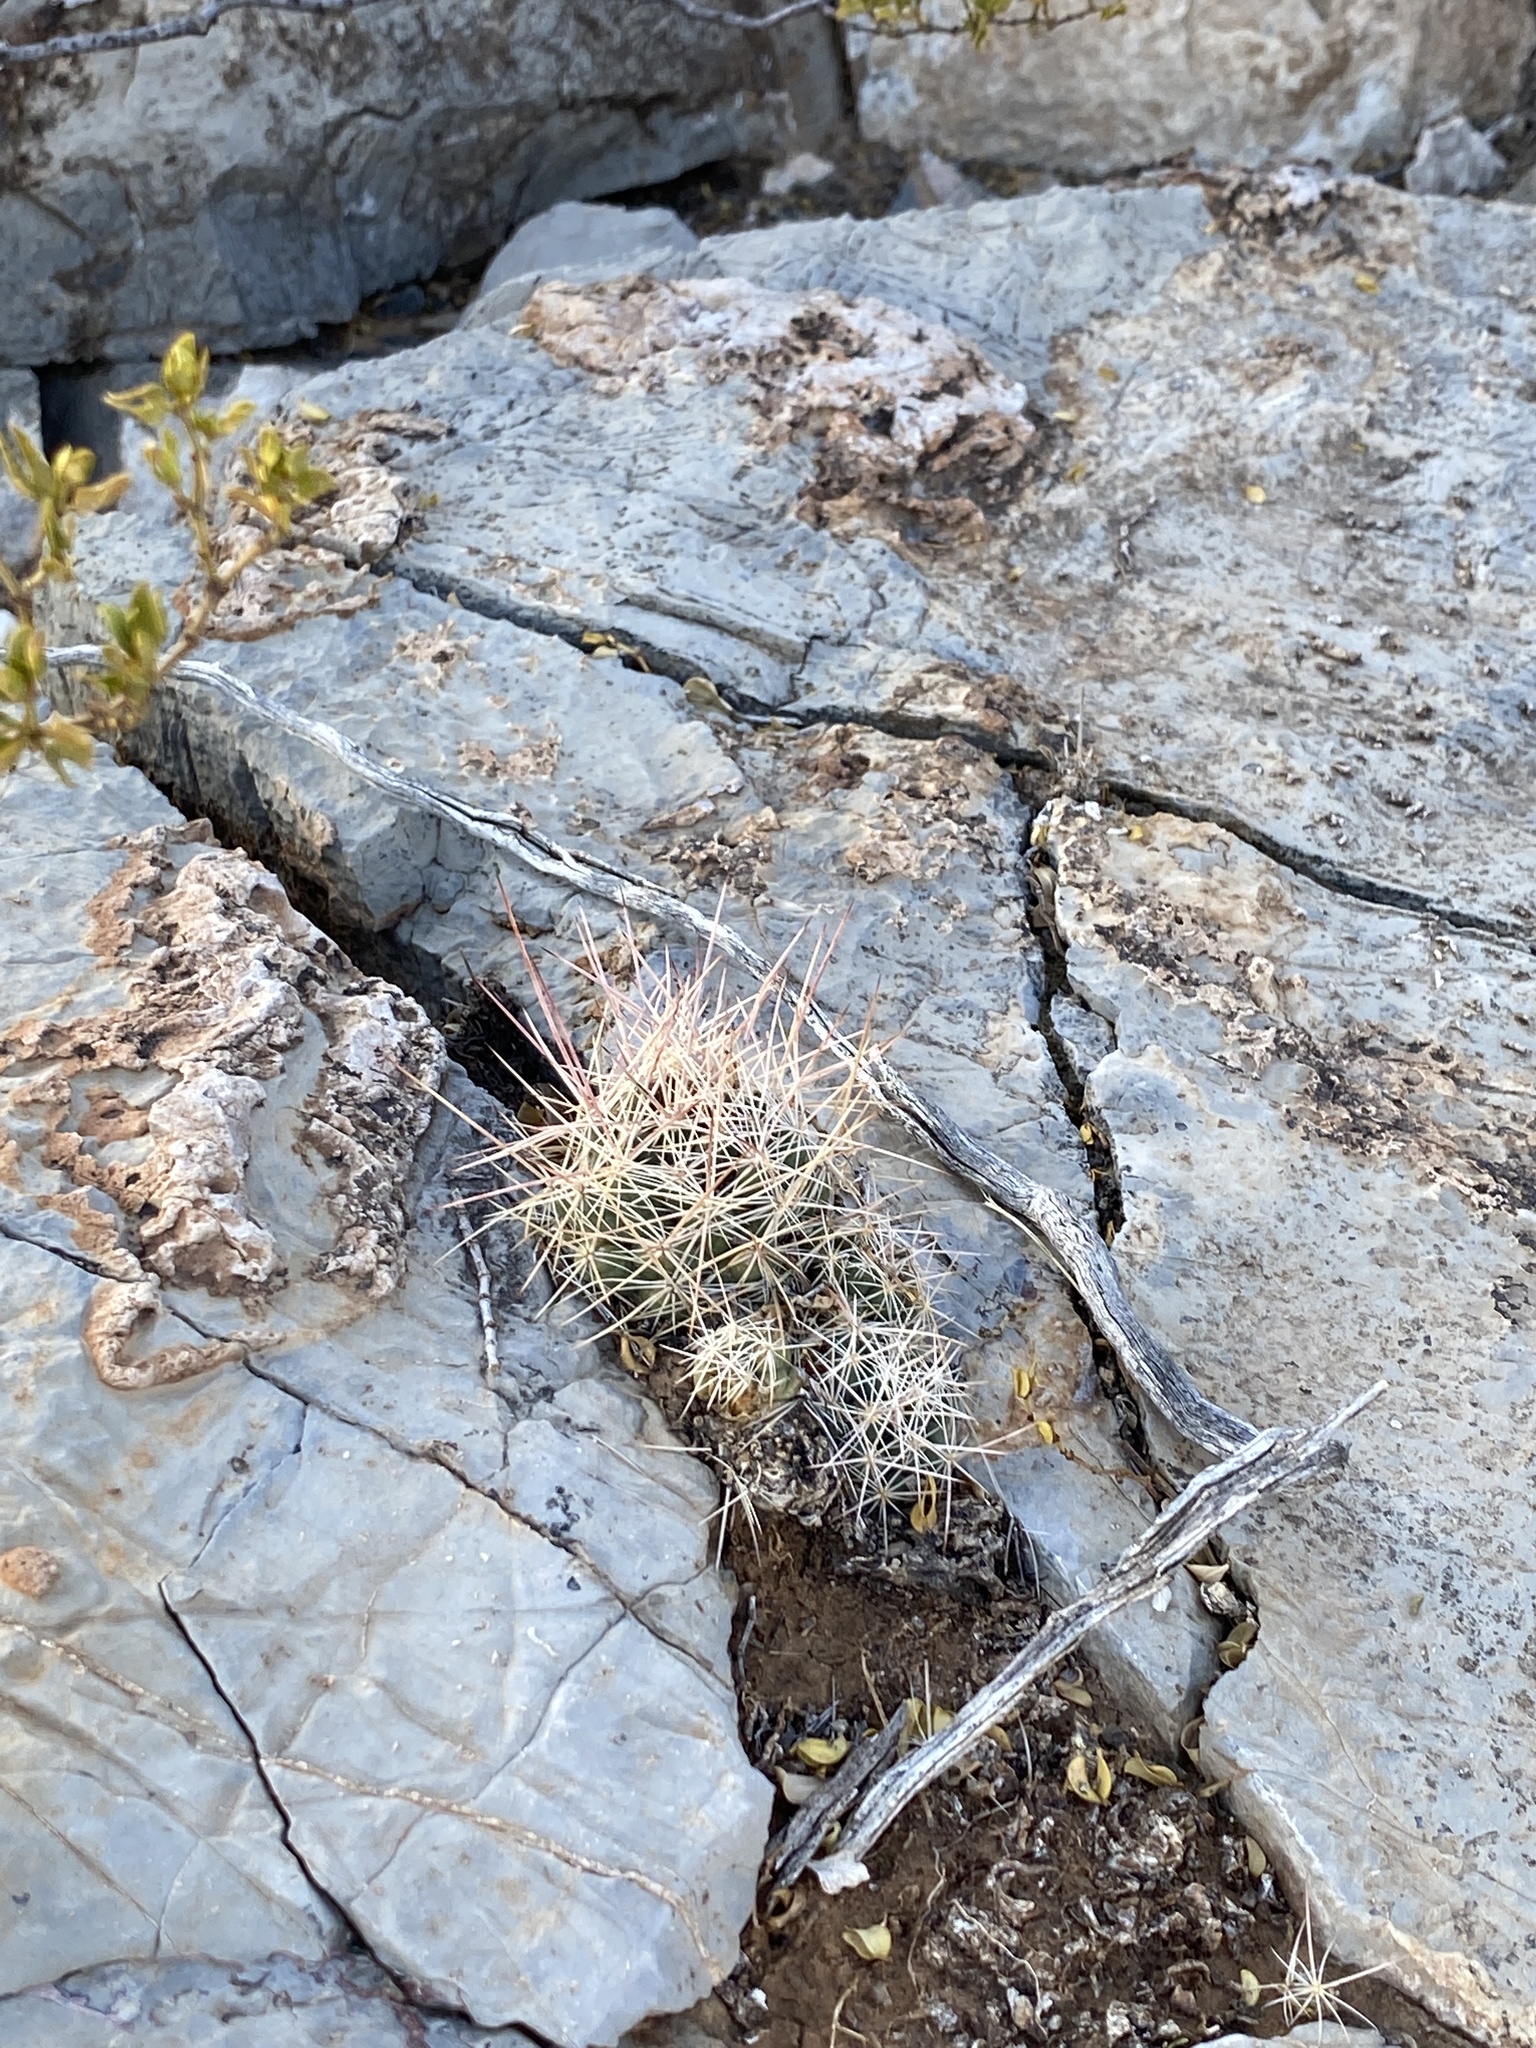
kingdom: Plantae
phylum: Tracheophyta
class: Magnoliopsida
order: Caryophyllales
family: Cactaceae
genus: Coryphantha
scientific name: Coryphantha macromeris
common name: Nipple beehive cactus
